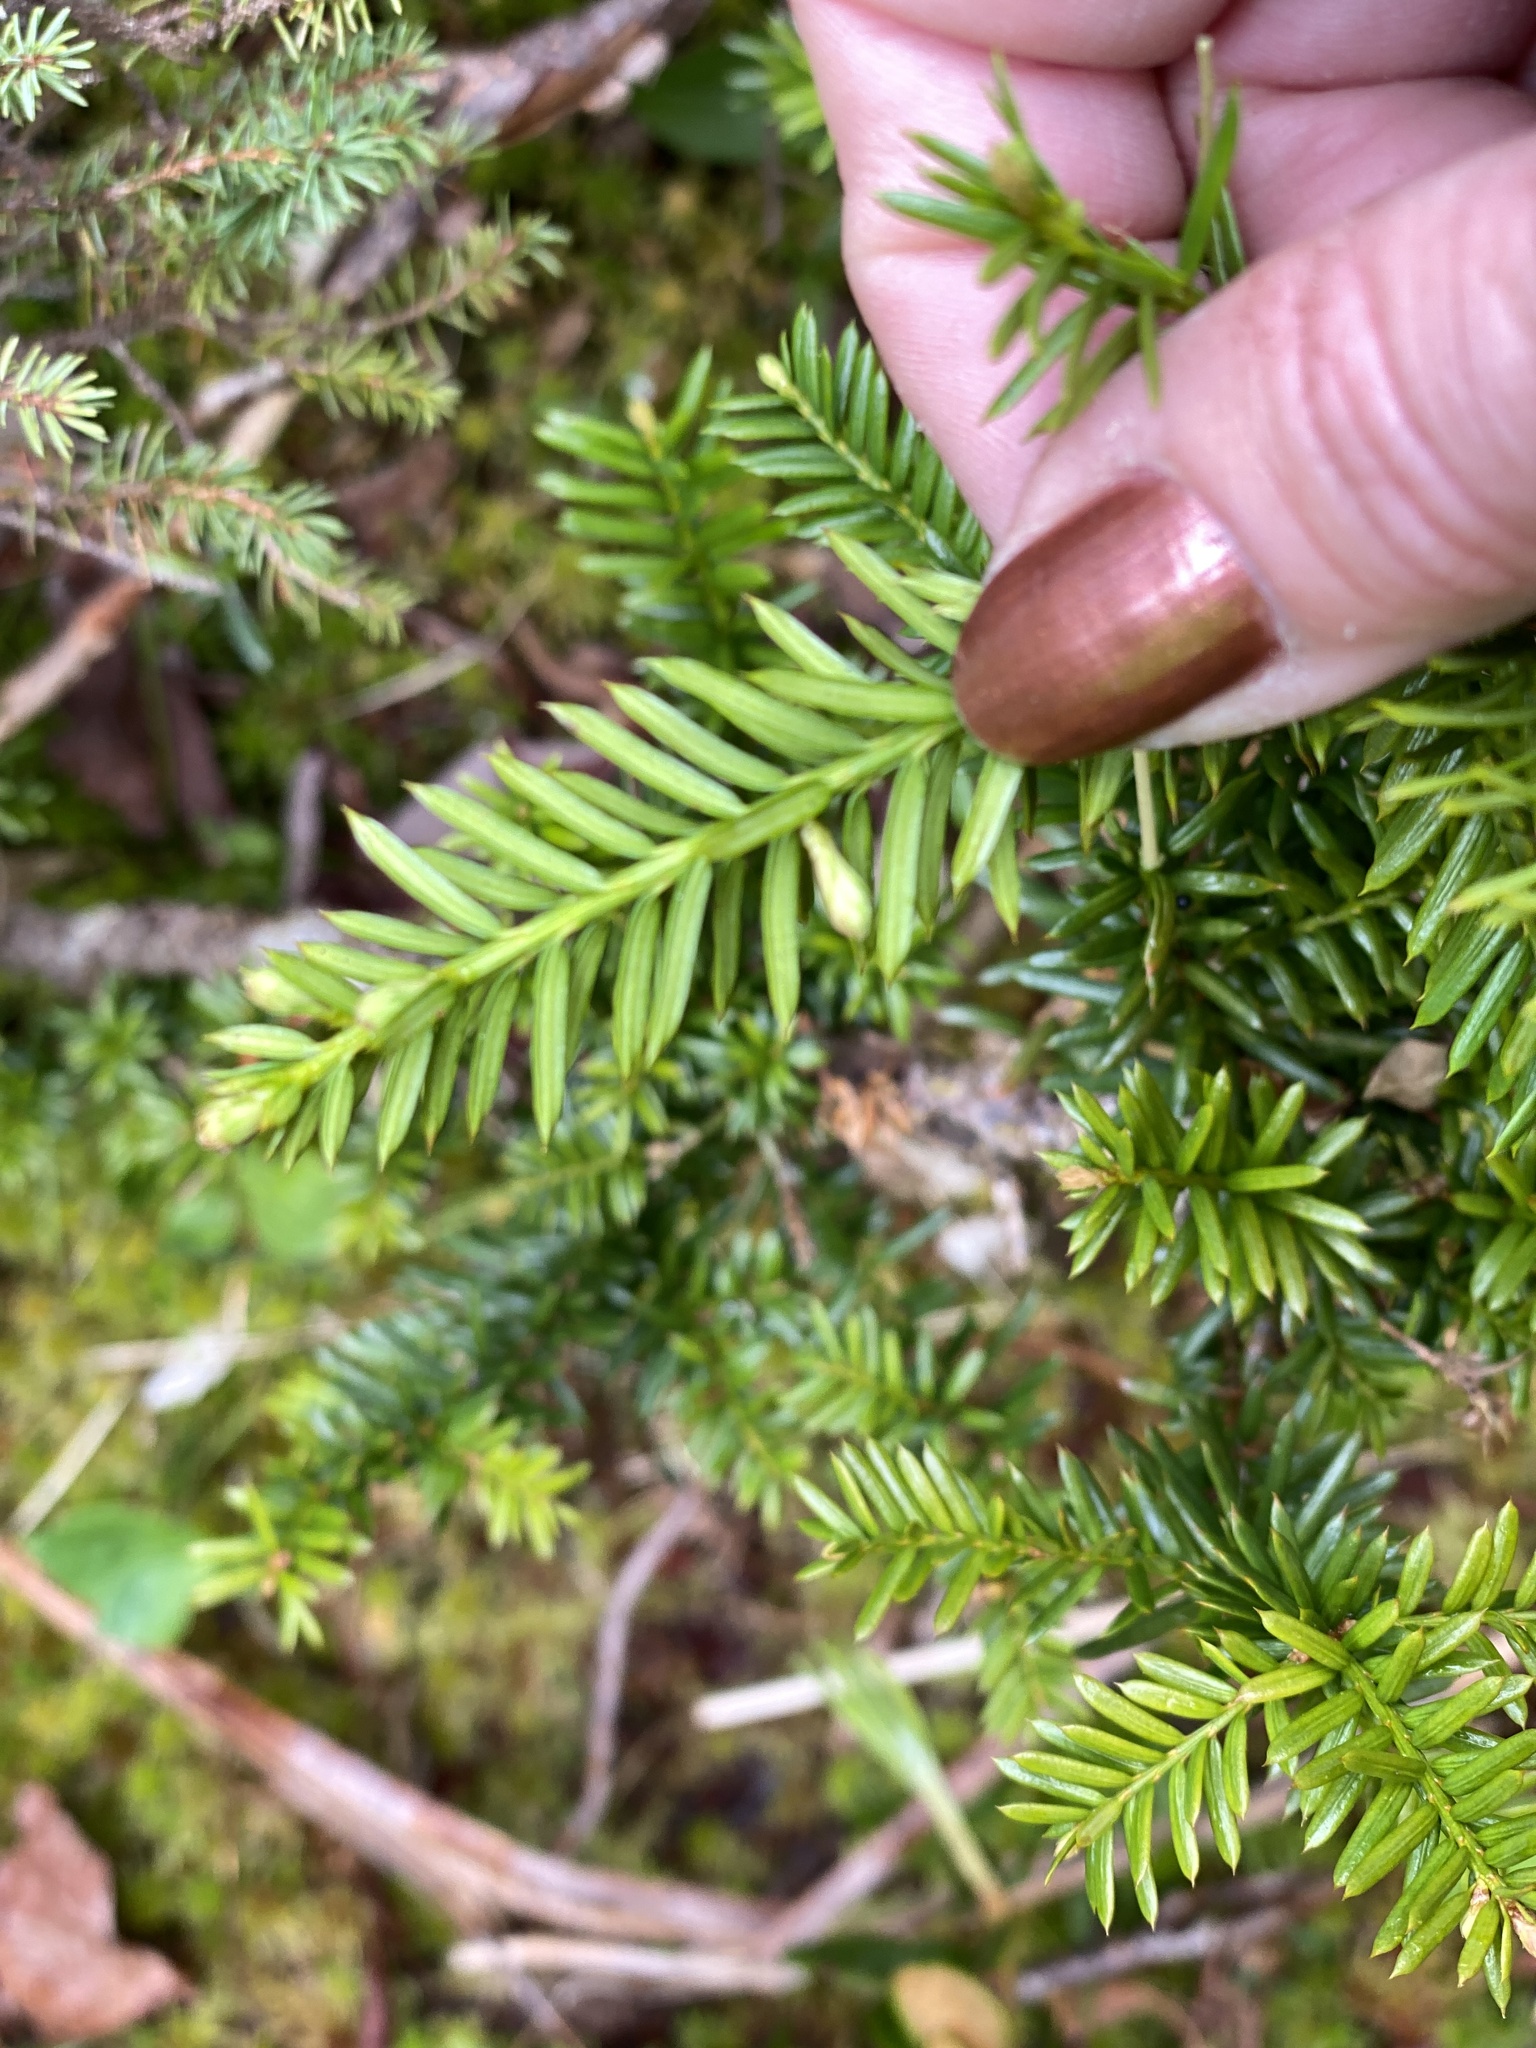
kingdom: Plantae
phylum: Tracheophyta
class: Pinopsida
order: Pinales
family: Taxaceae
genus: Taxus
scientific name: Taxus canadensis
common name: American yew
